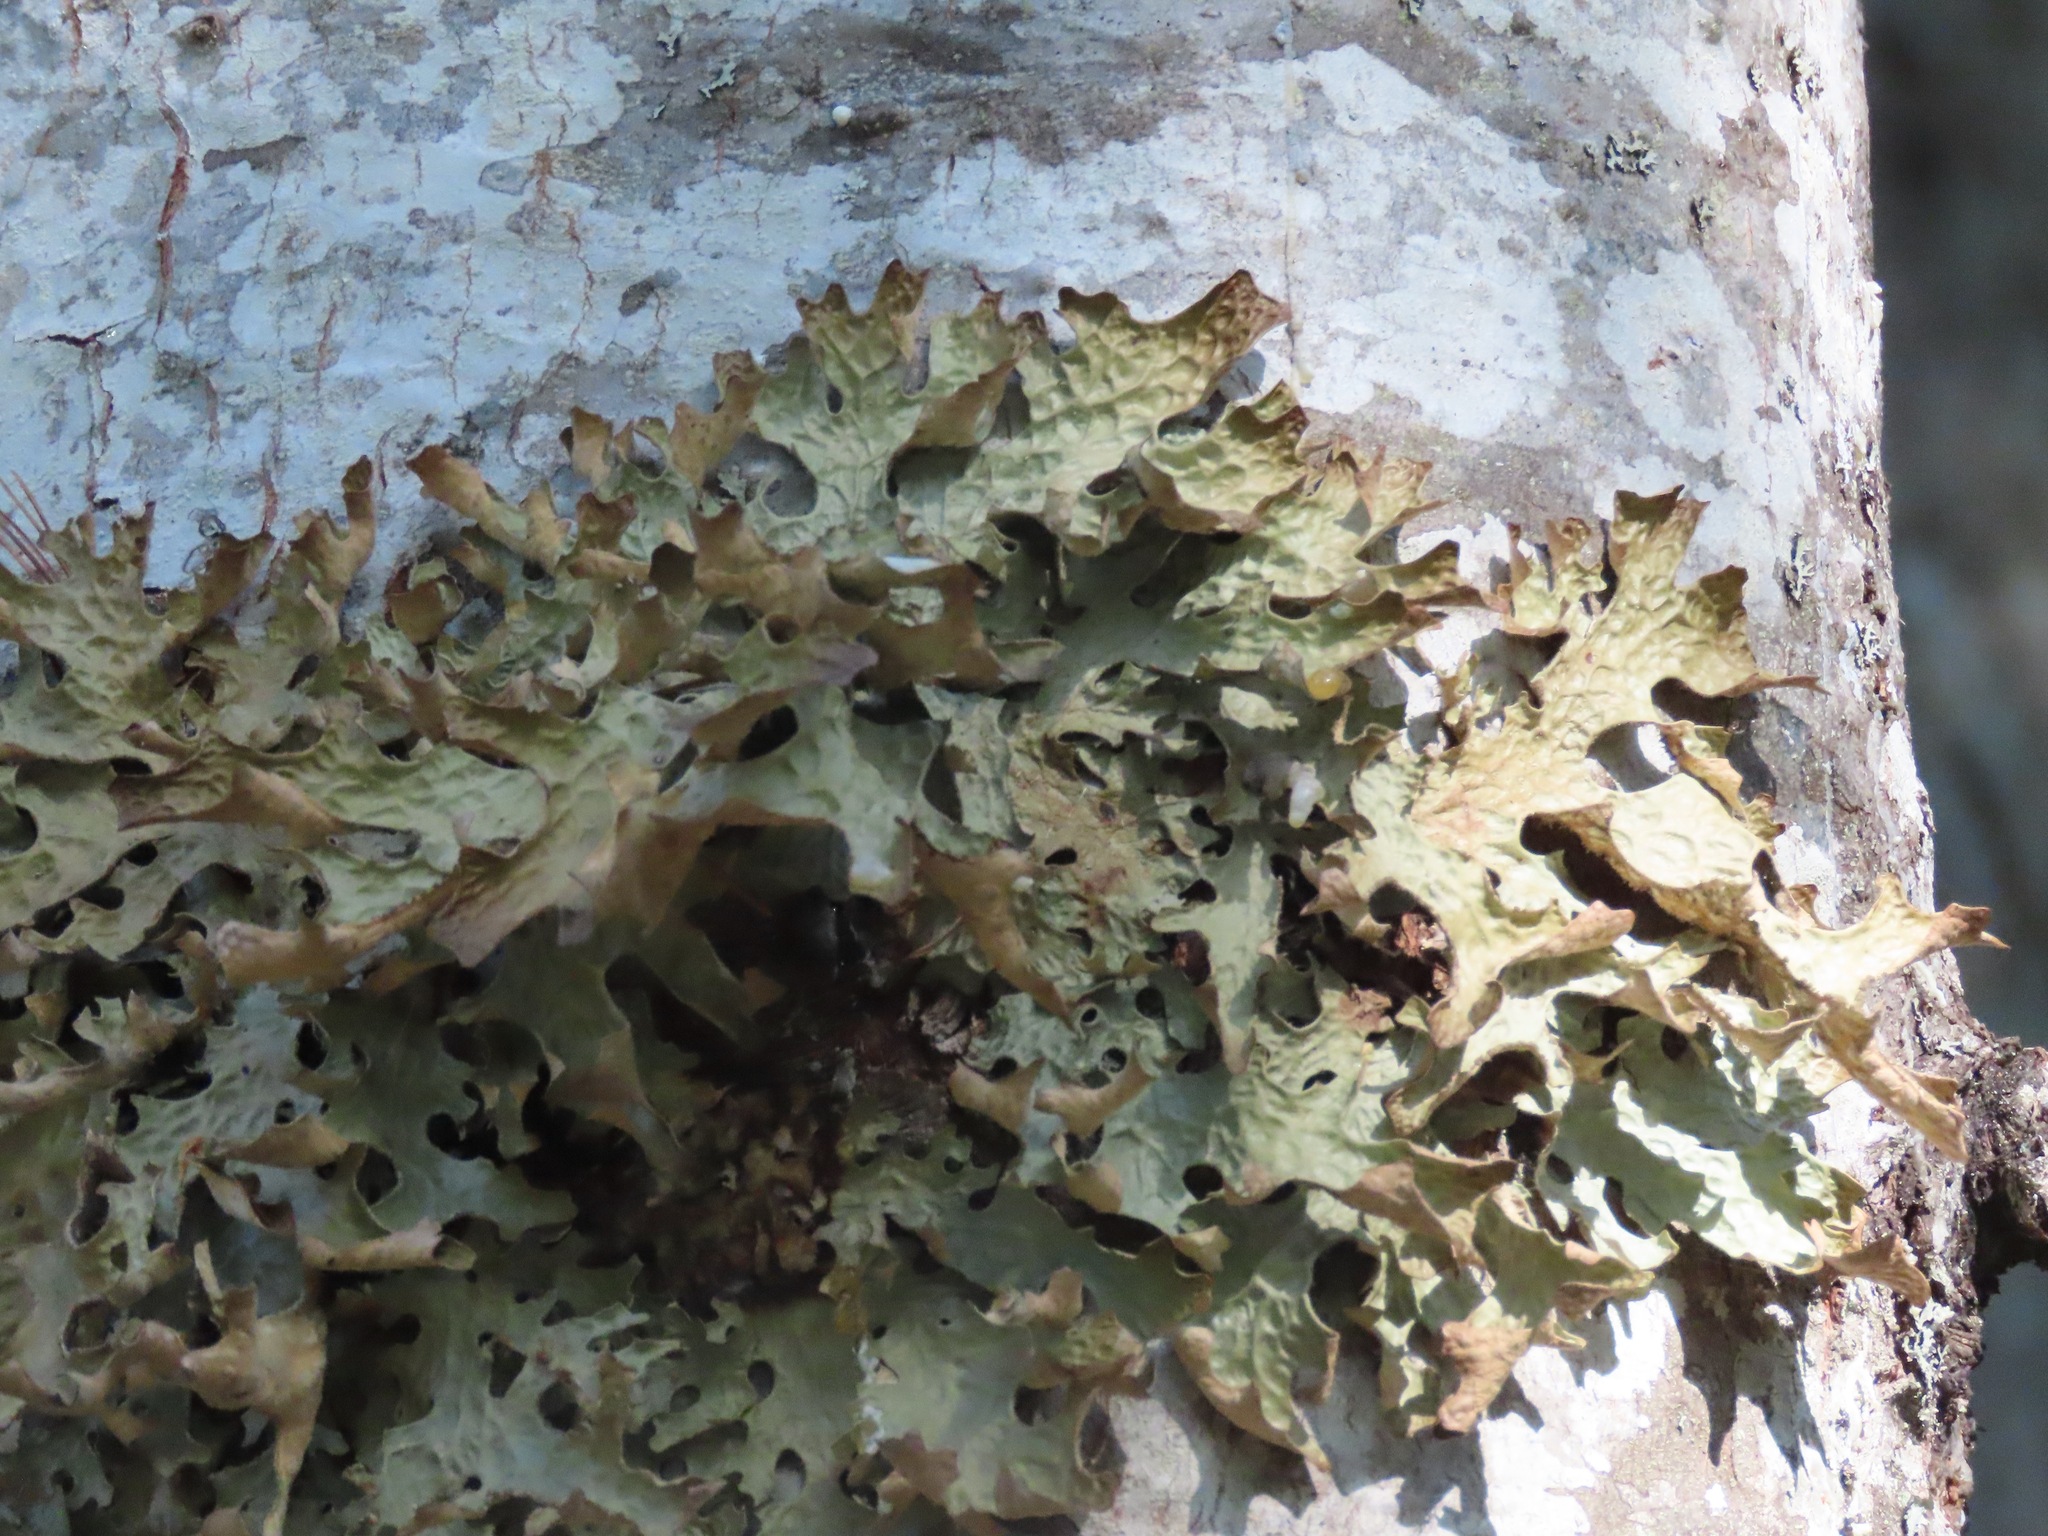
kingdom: Fungi
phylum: Ascomycota
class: Lecanoromycetes
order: Peltigerales
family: Lobariaceae
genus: Lobaria
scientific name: Lobaria pulmonaria
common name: Lungwort
